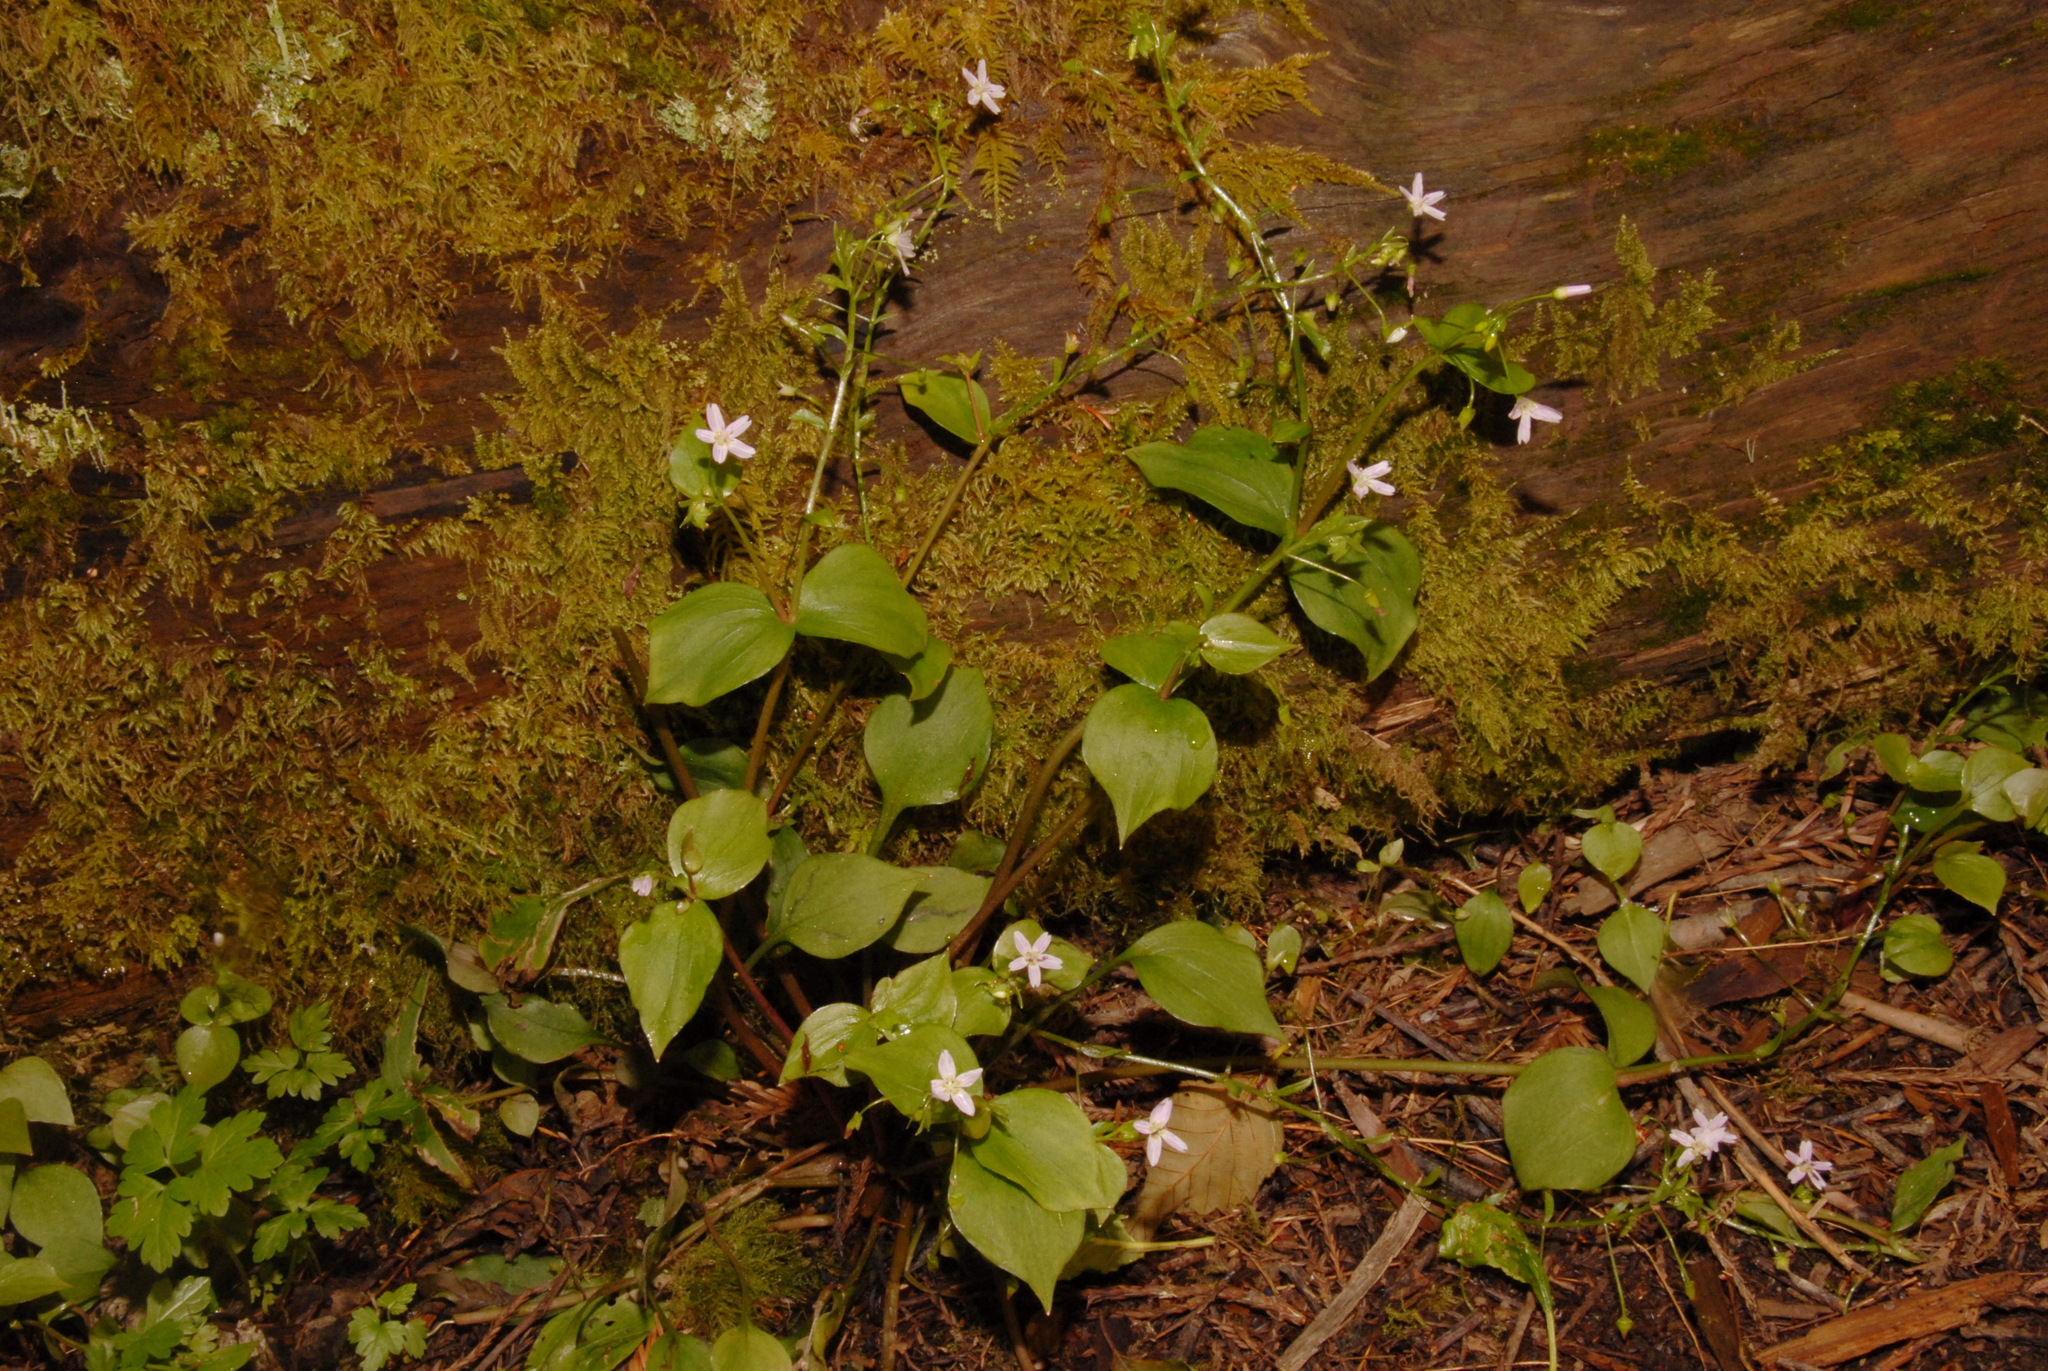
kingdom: Plantae
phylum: Tracheophyta
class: Magnoliopsida
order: Caryophyllales
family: Montiaceae
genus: Claytonia
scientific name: Claytonia sibirica
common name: Pink purslane
